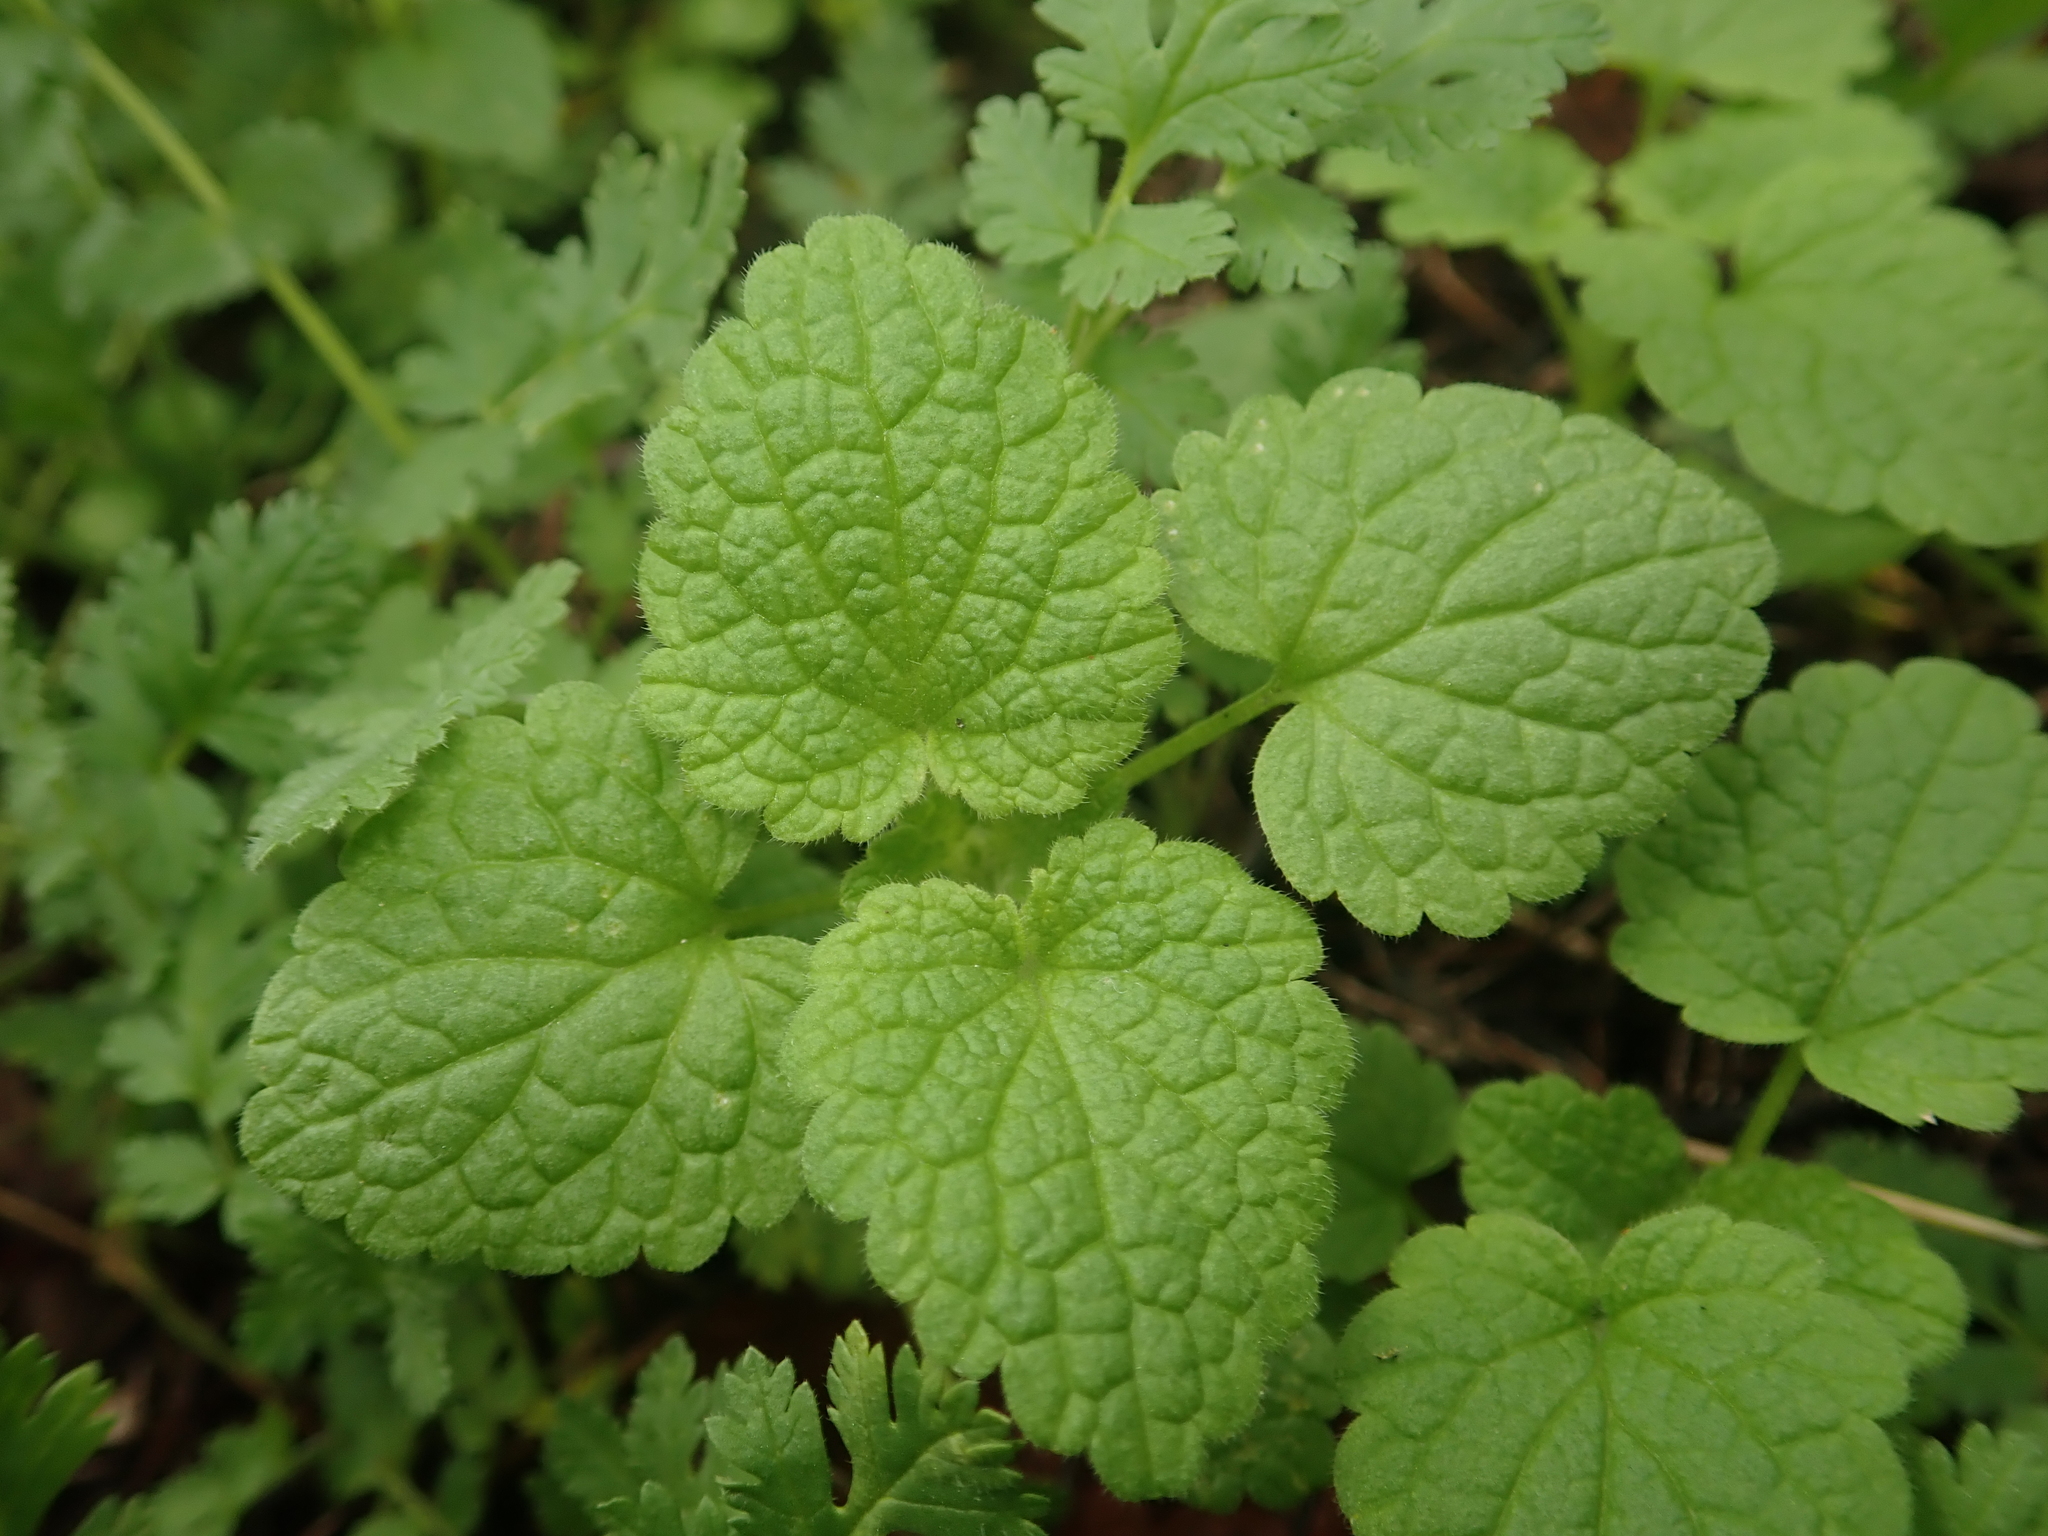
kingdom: Plantae
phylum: Tracheophyta
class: Magnoliopsida
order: Lamiales
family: Lamiaceae
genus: Lamium
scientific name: Lamium purpureum
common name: Red dead-nettle
